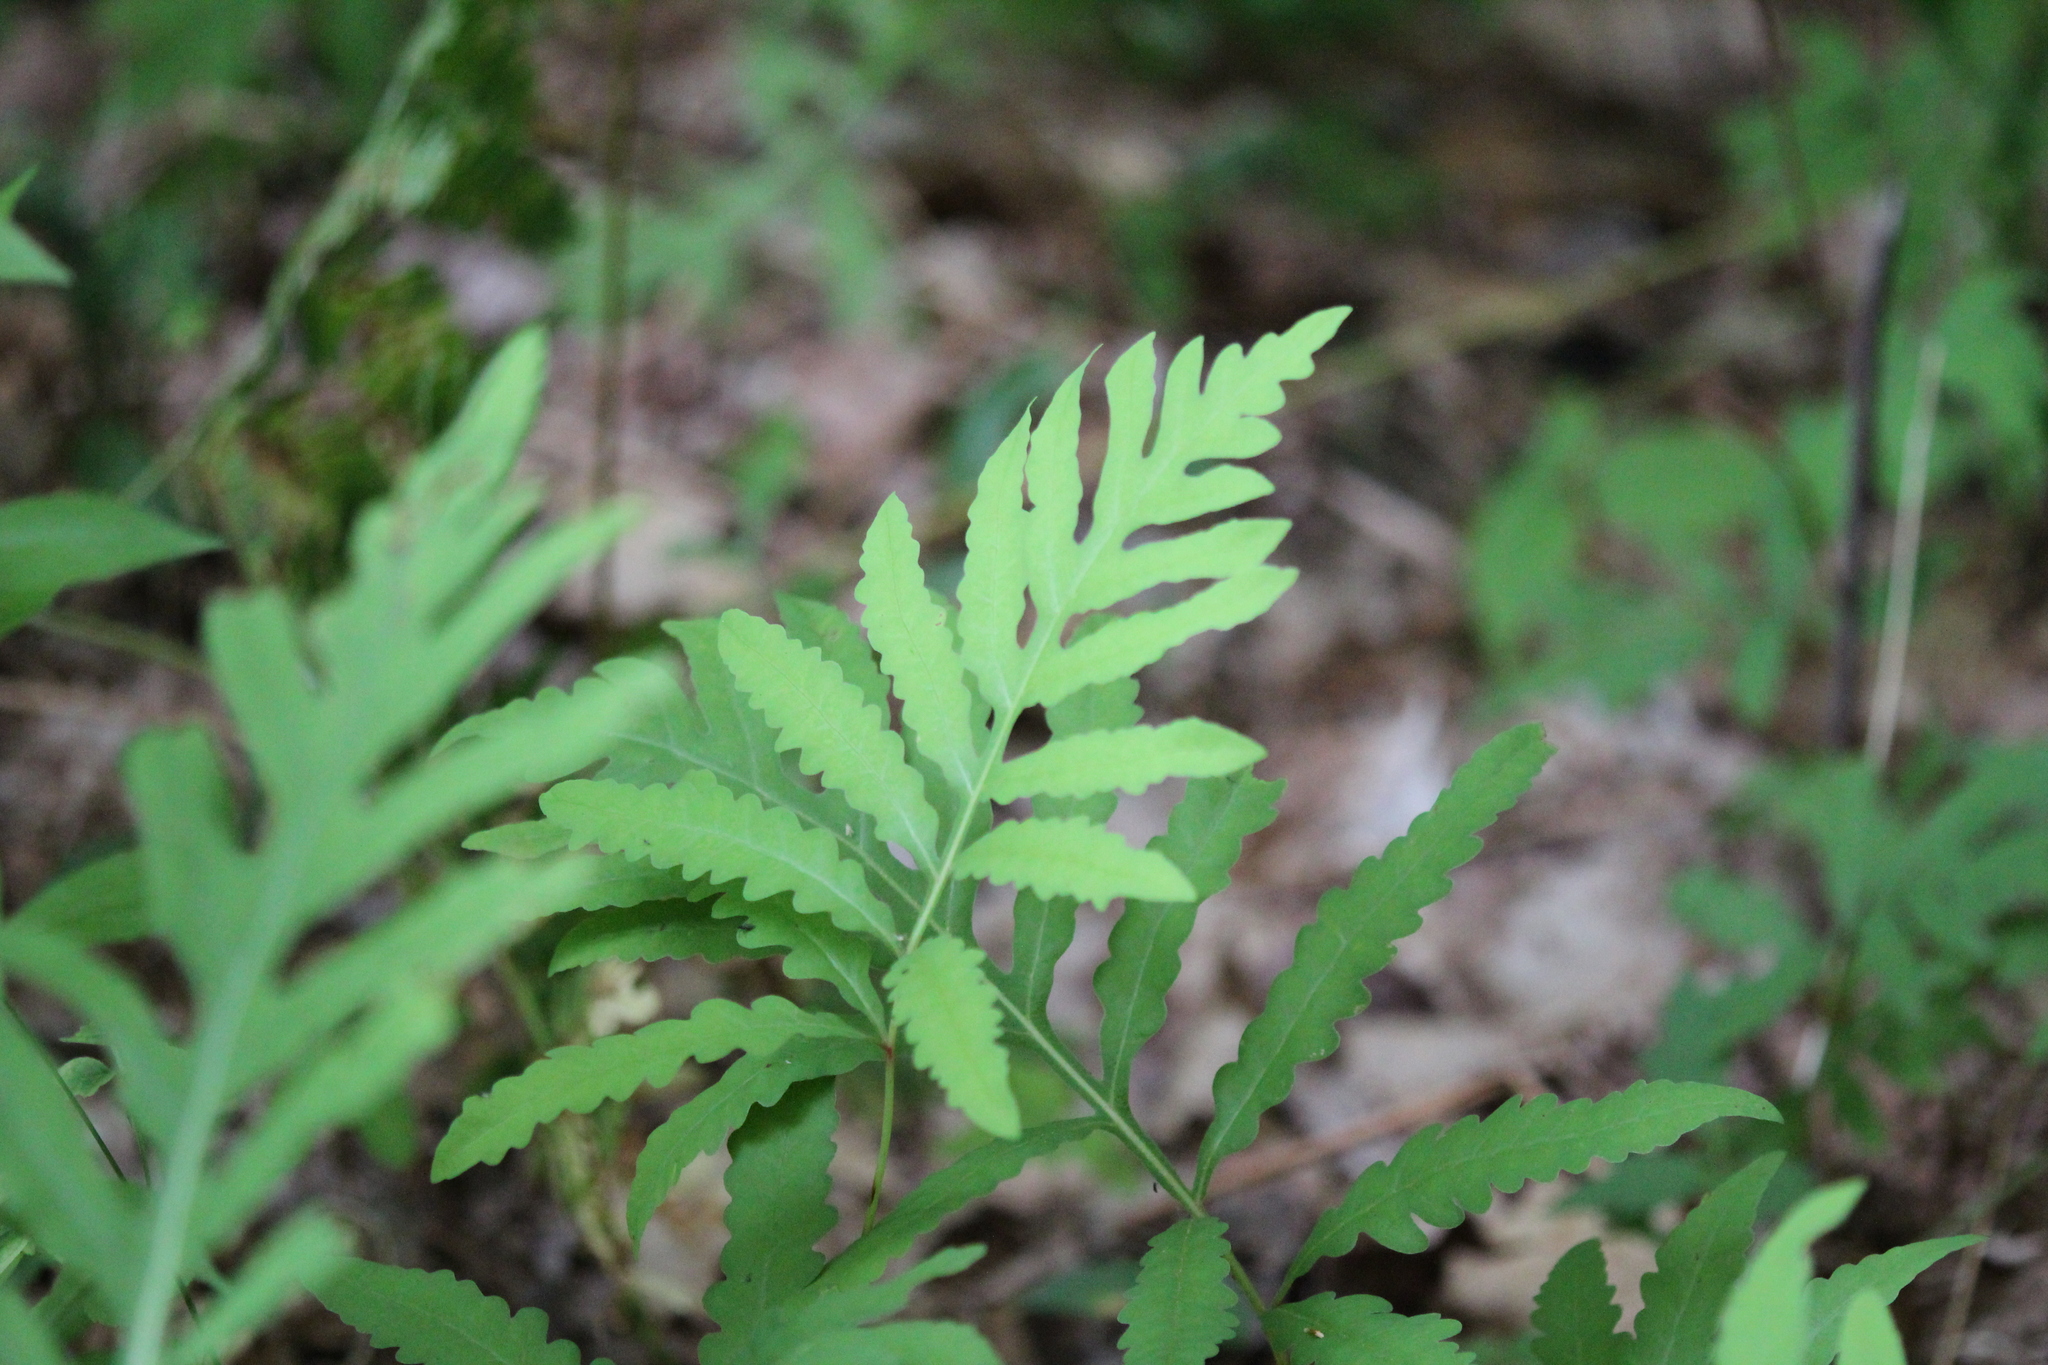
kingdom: Plantae
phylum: Tracheophyta
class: Polypodiopsida
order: Polypodiales
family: Onocleaceae
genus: Onoclea
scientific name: Onoclea sensibilis
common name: Sensitive fern
